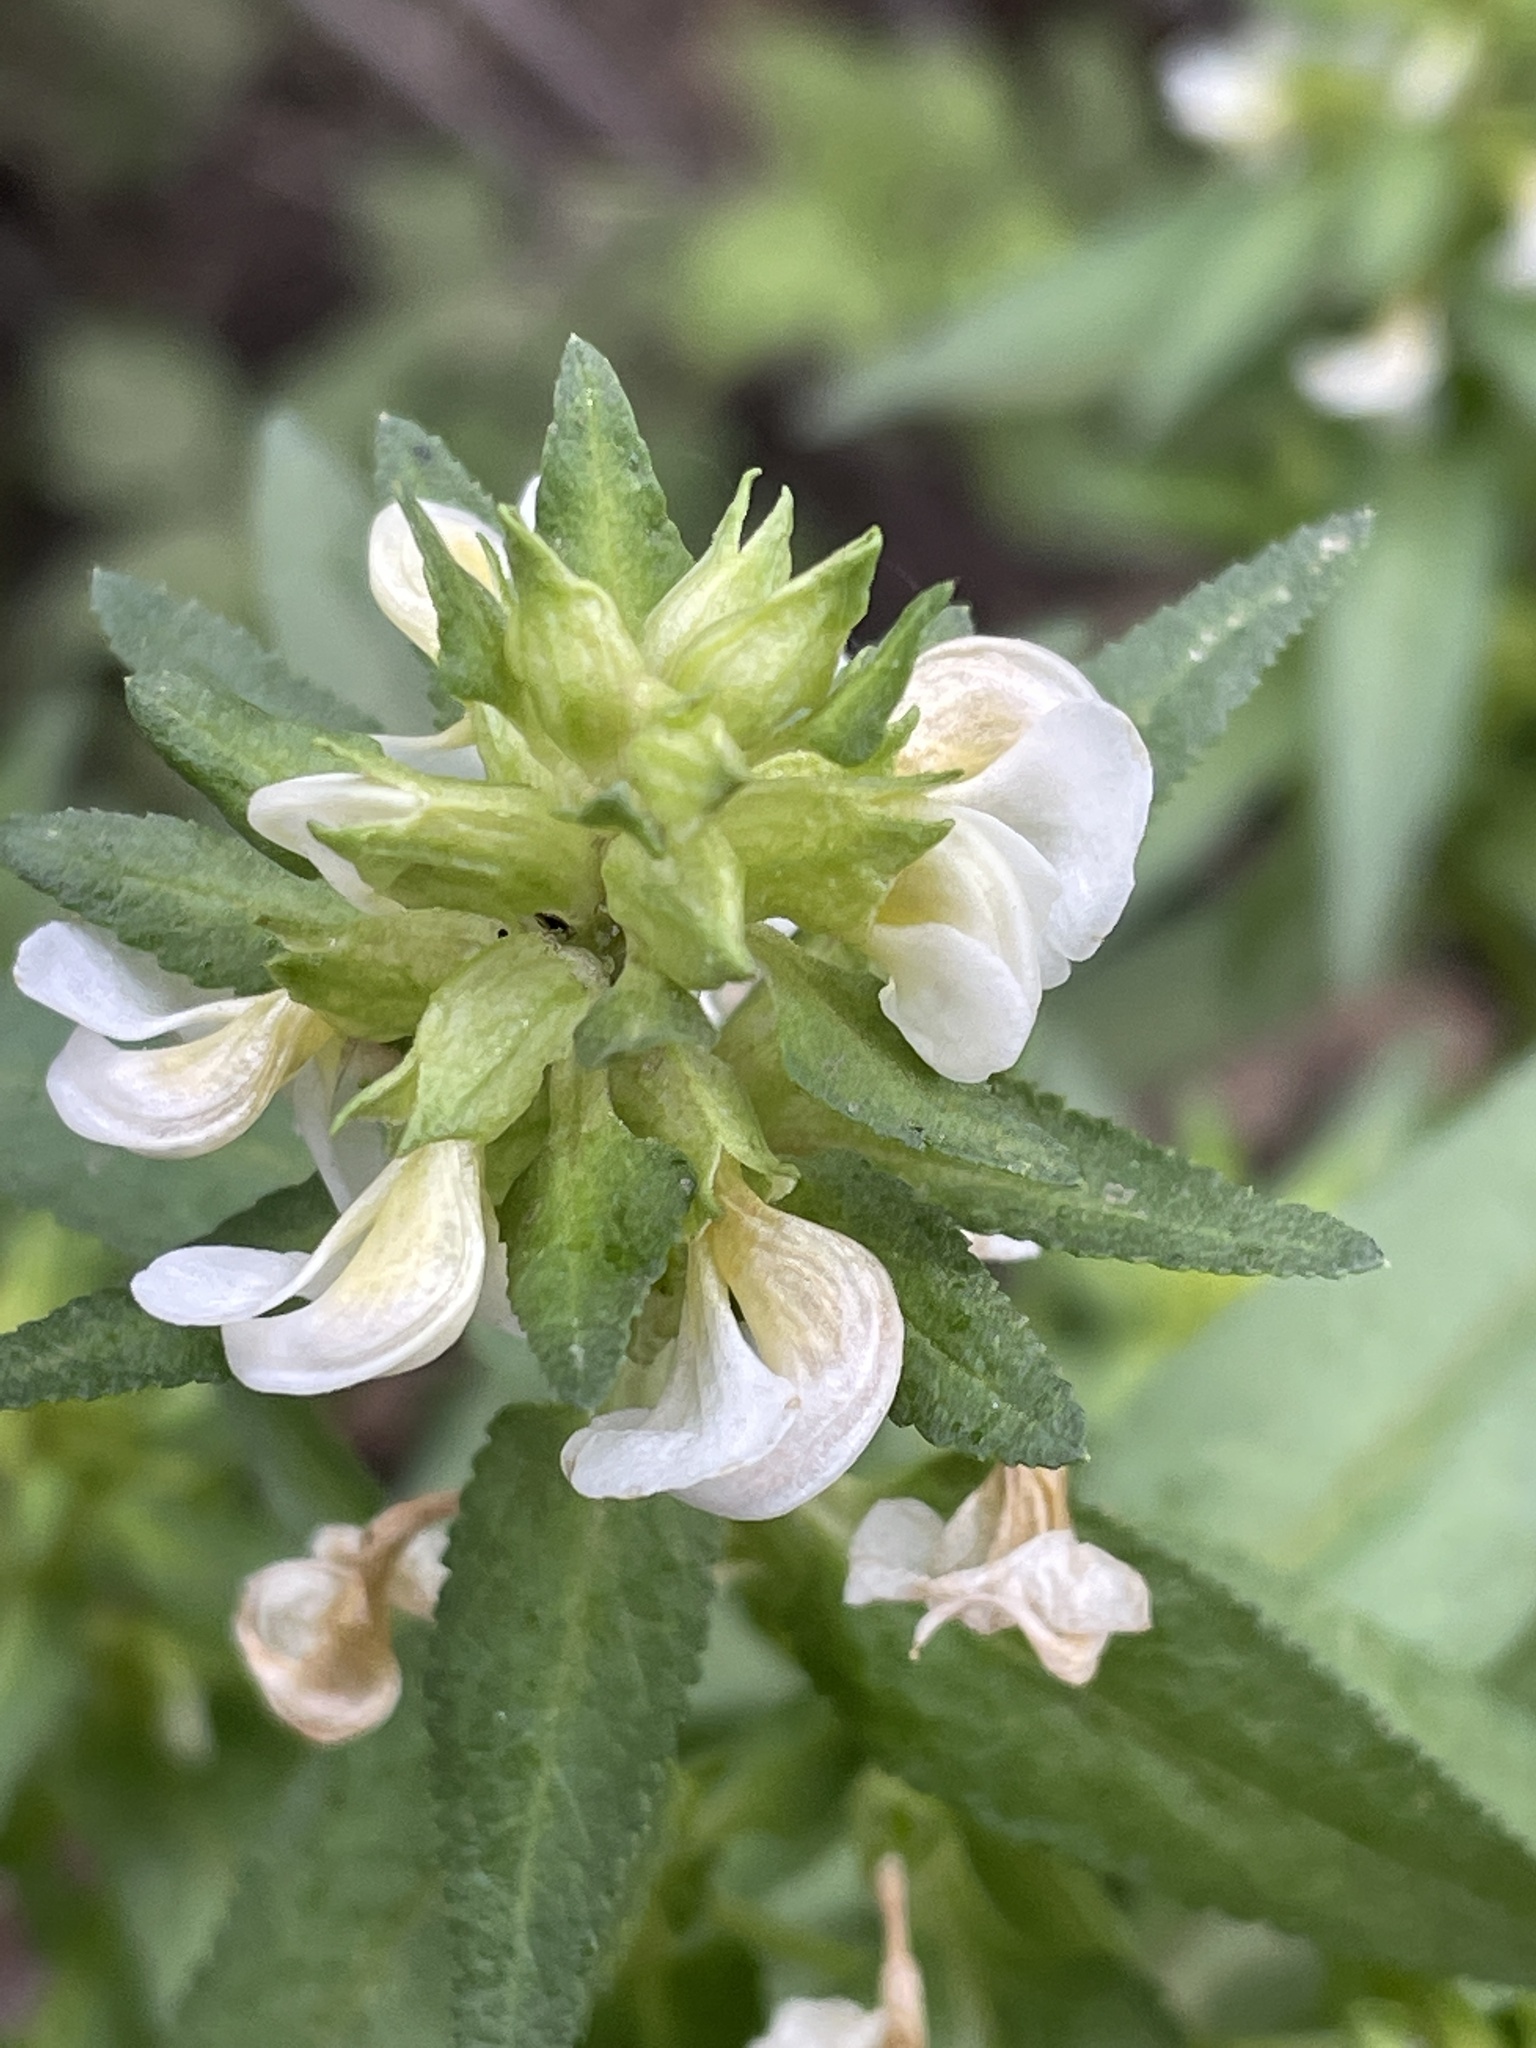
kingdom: Plantae
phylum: Tracheophyta
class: Magnoliopsida
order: Lamiales
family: Orobanchaceae
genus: Pedicularis
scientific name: Pedicularis racemosa
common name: Leafy lousewort
